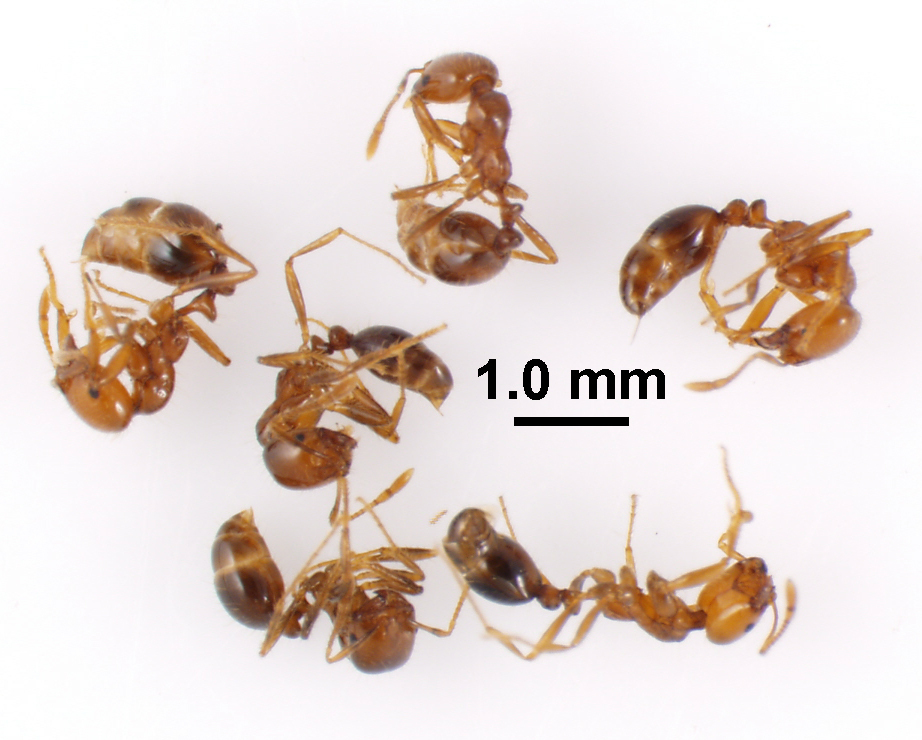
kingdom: Animalia
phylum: Arthropoda
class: Insecta
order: Hymenoptera
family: Formicidae
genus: Solenopsis
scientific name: Solenopsis geminata
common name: Tropical fire ant
